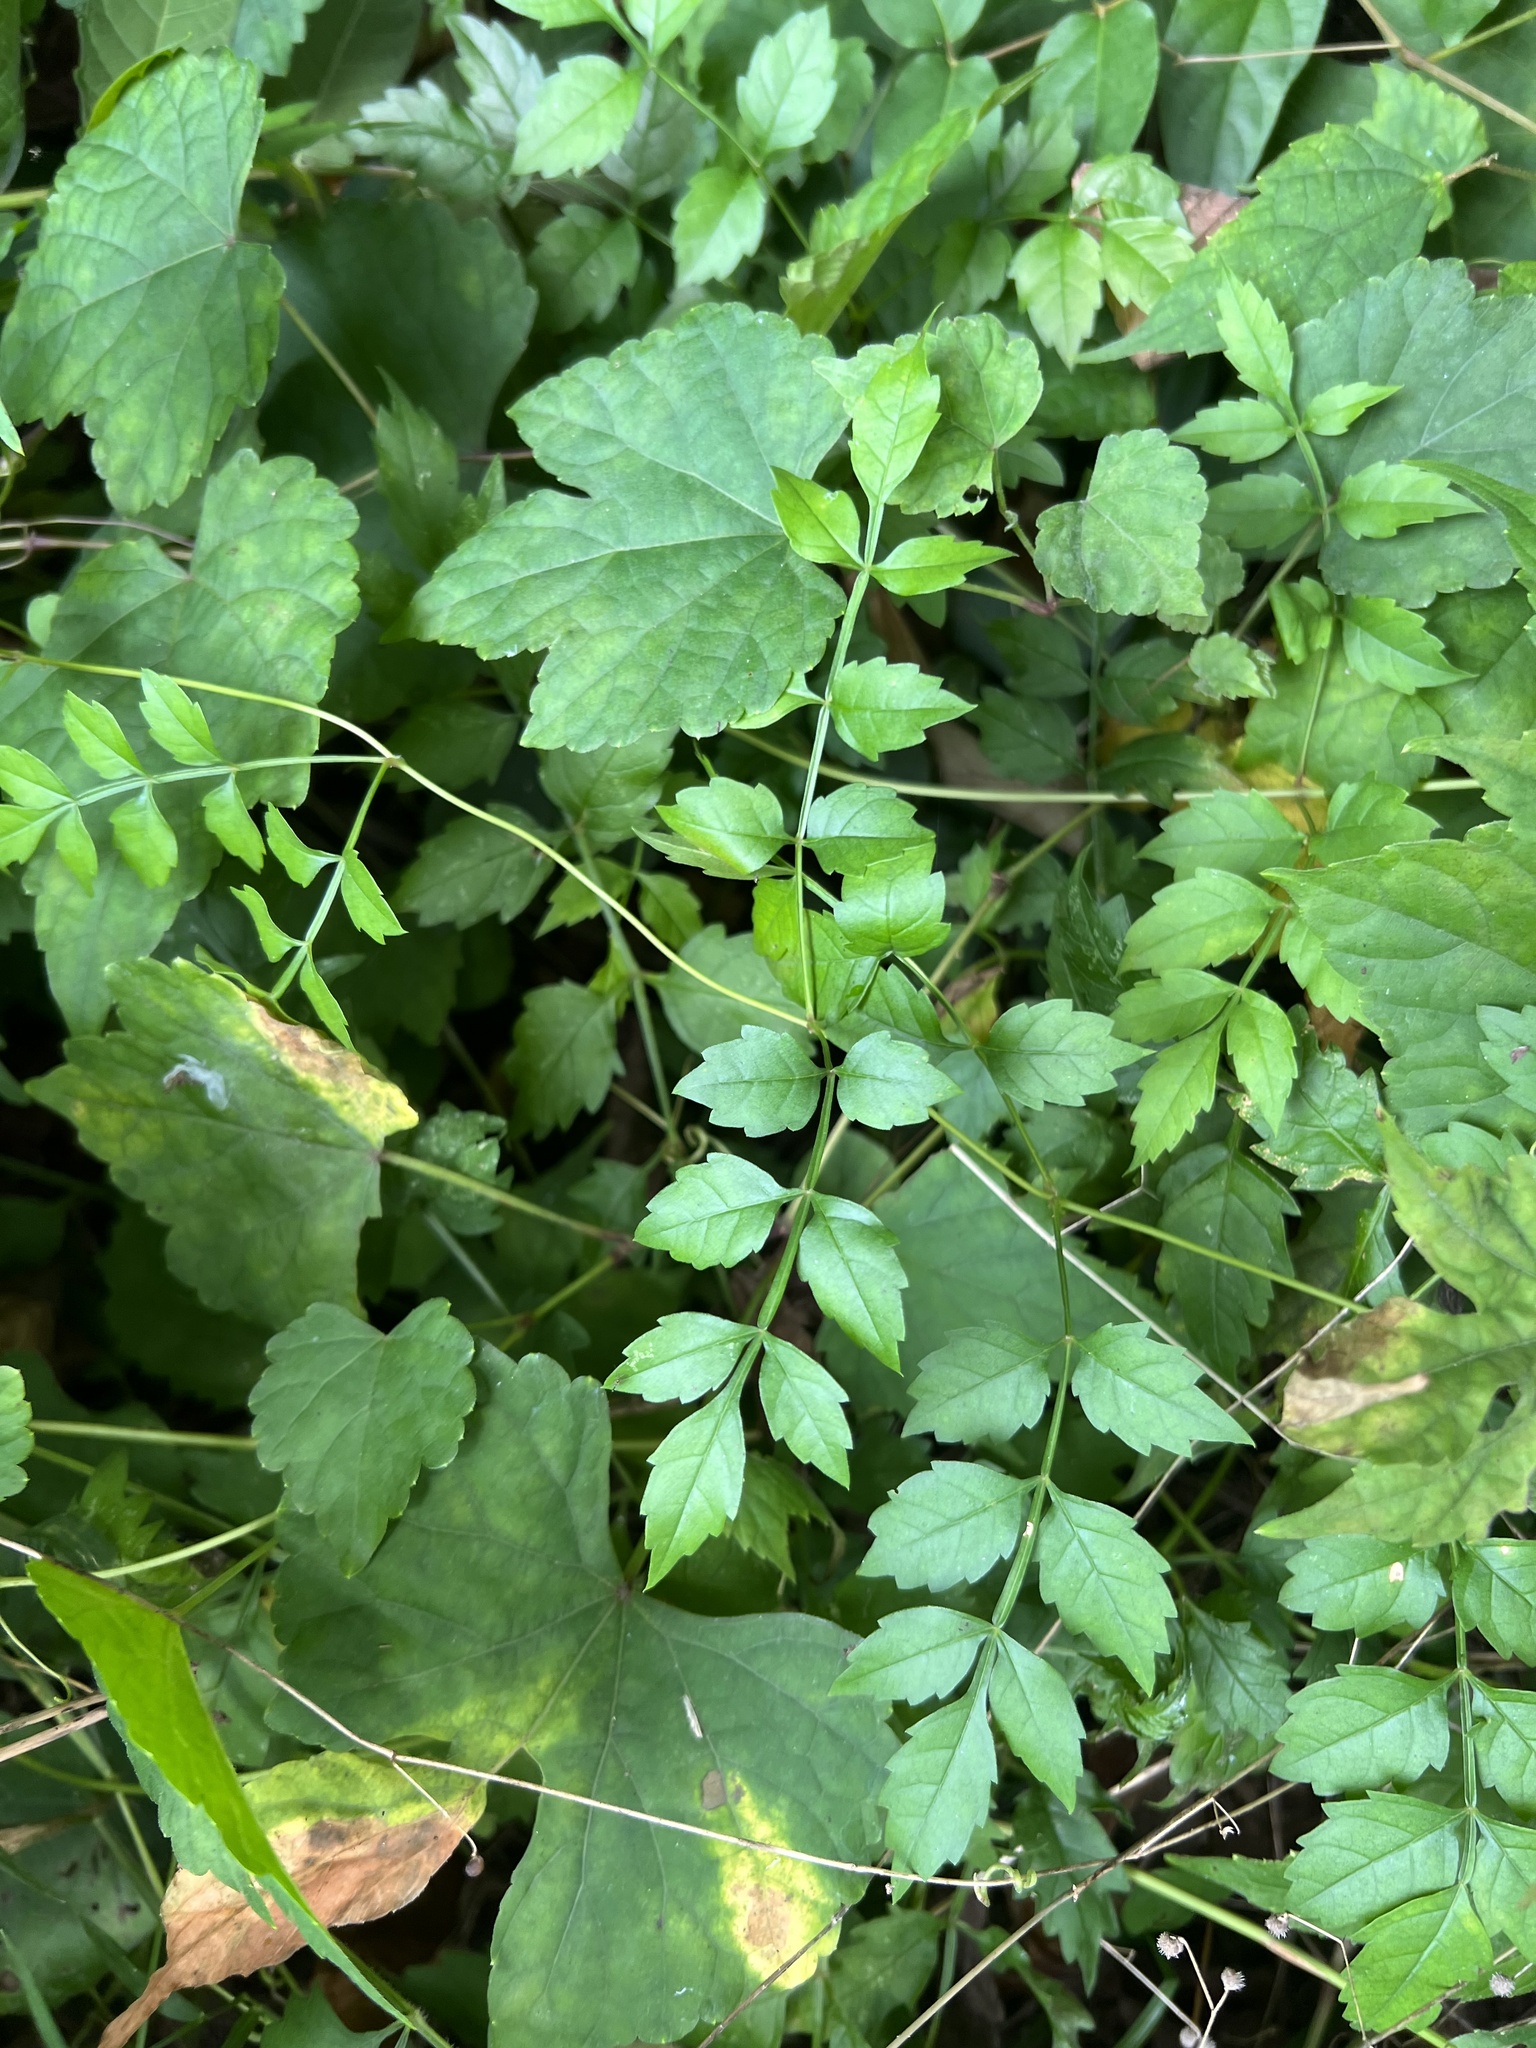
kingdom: Plantae
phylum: Tracheophyta
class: Magnoliopsida
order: Lamiales
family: Bignoniaceae
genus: Campsis
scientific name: Campsis radicans
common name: Trumpet-creeper
